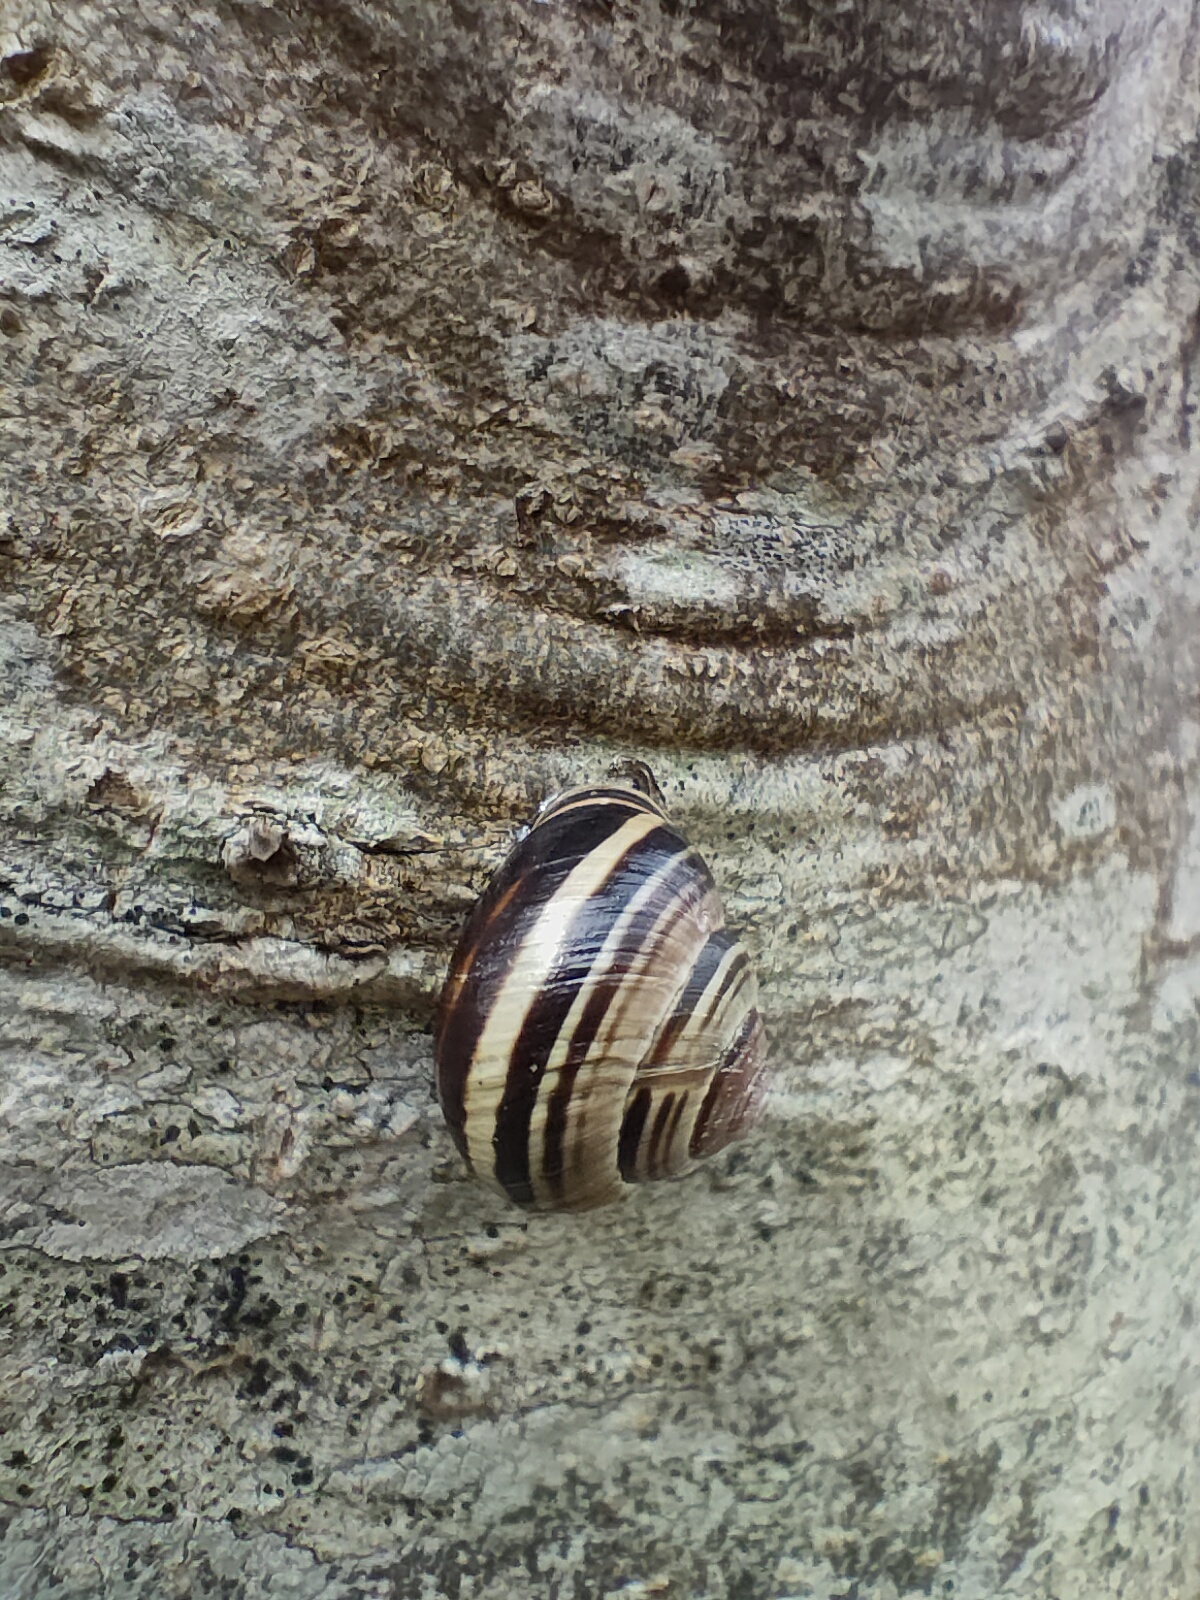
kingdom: Animalia
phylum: Mollusca
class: Gastropoda
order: Stylommatophora
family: Helicidae
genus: Cepaea
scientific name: Cepaea nemoralis
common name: Grovesnail
